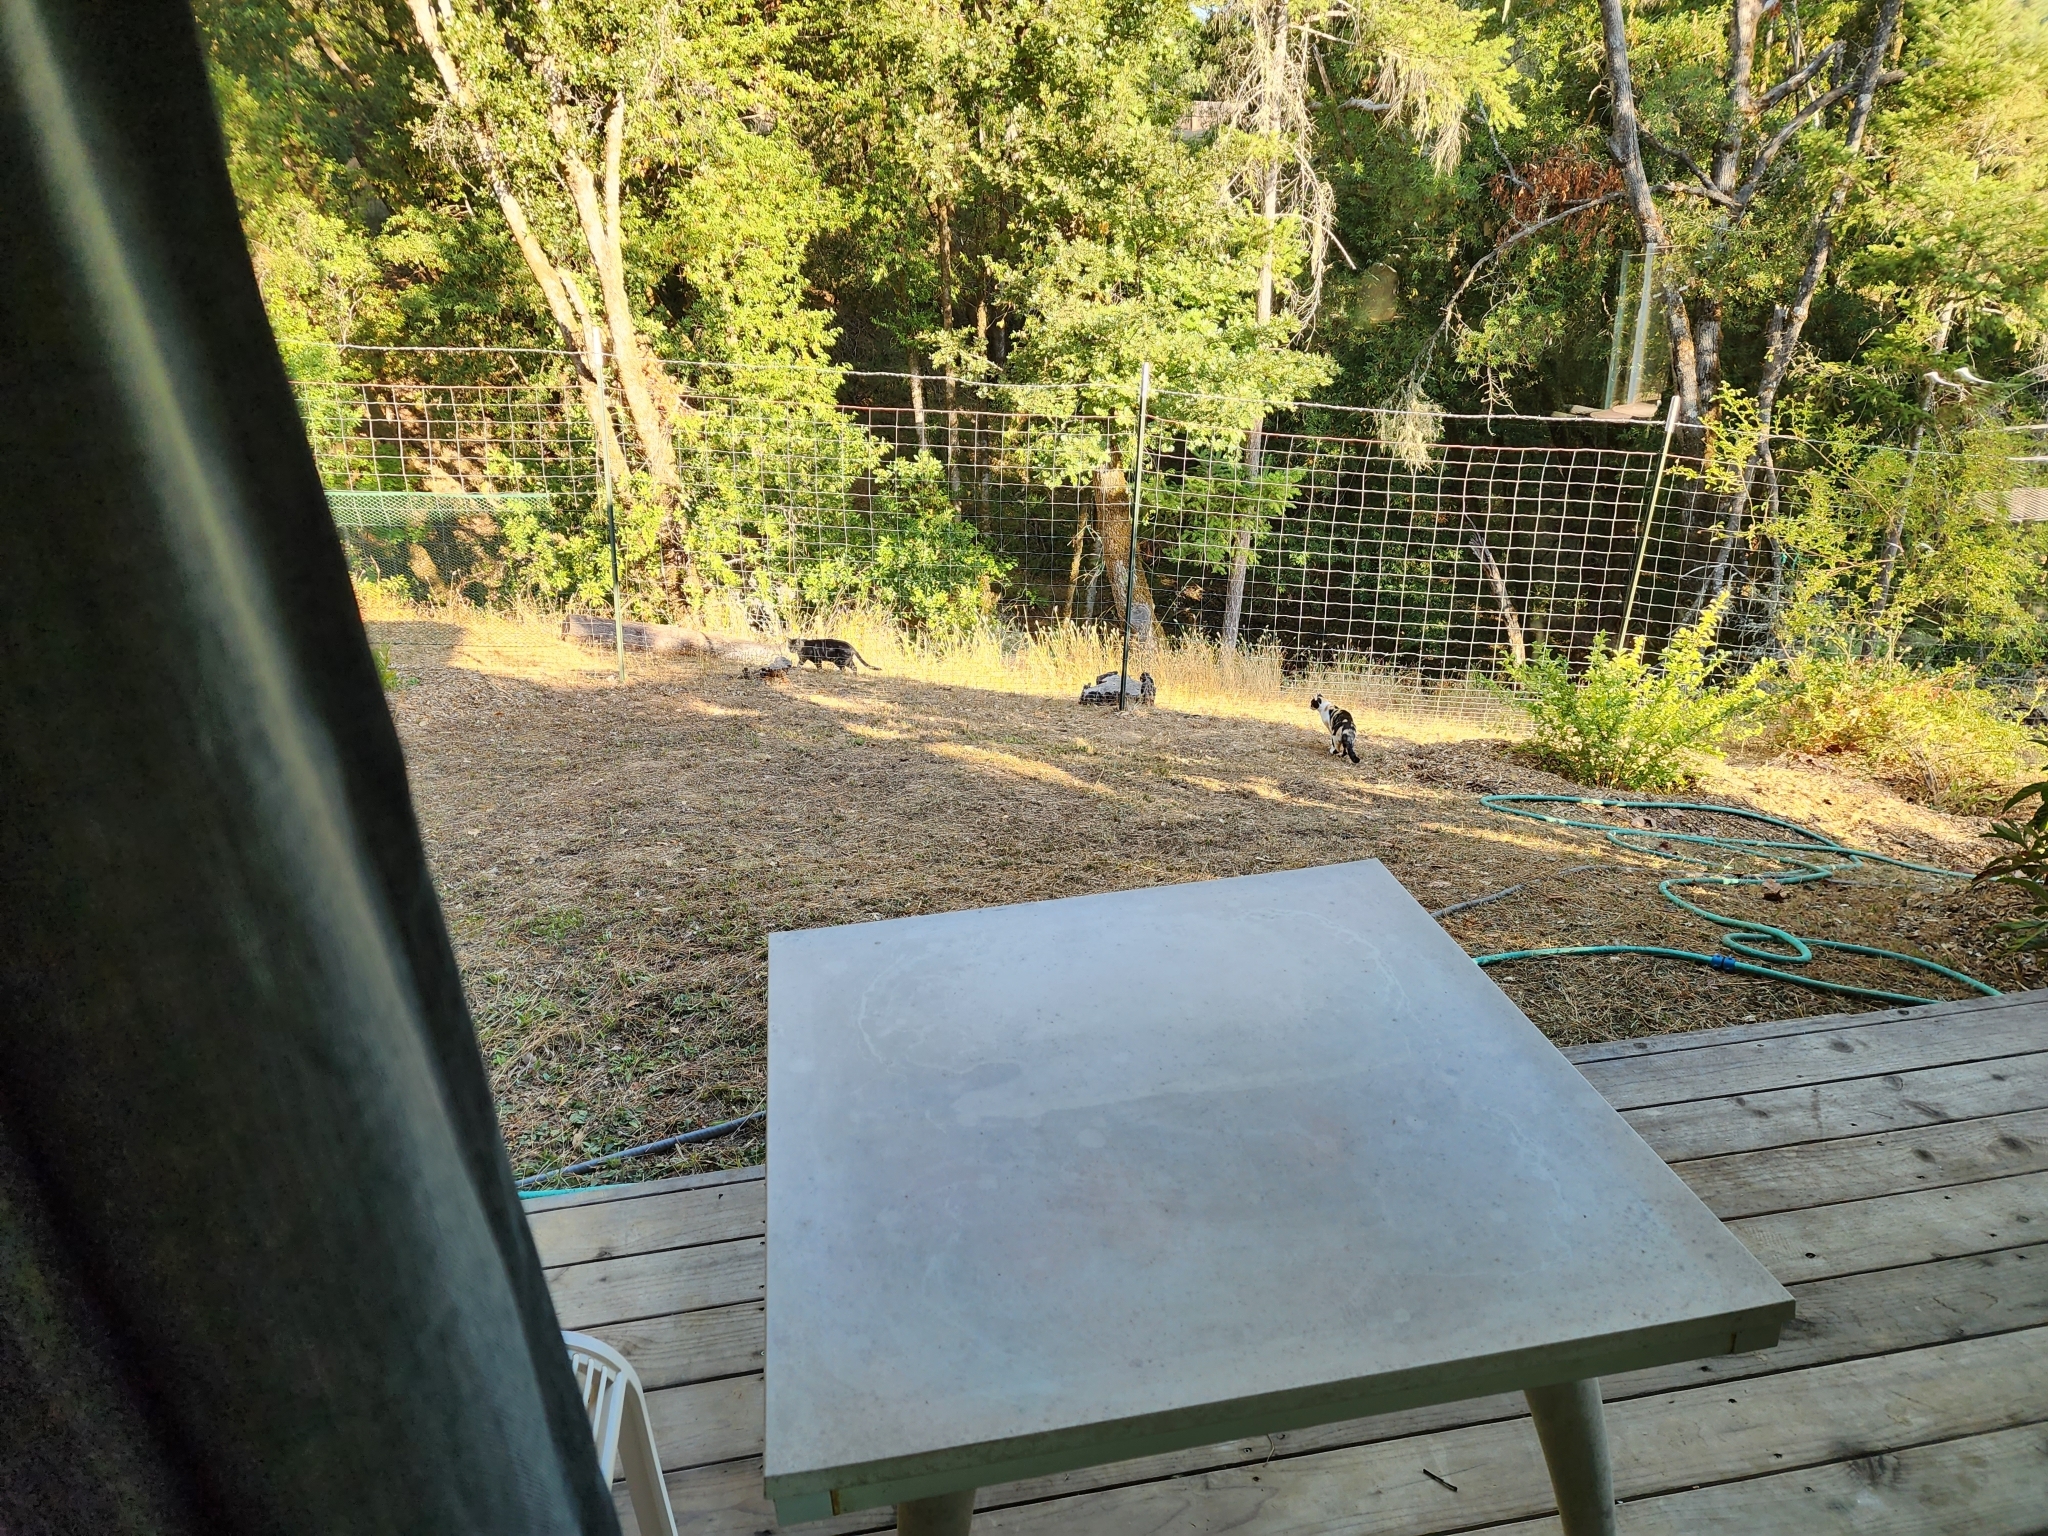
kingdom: Animalia
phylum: Chordata
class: Mammalia
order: Carnivora
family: Felidae
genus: Felis
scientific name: Felis catus
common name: Domestic cat
